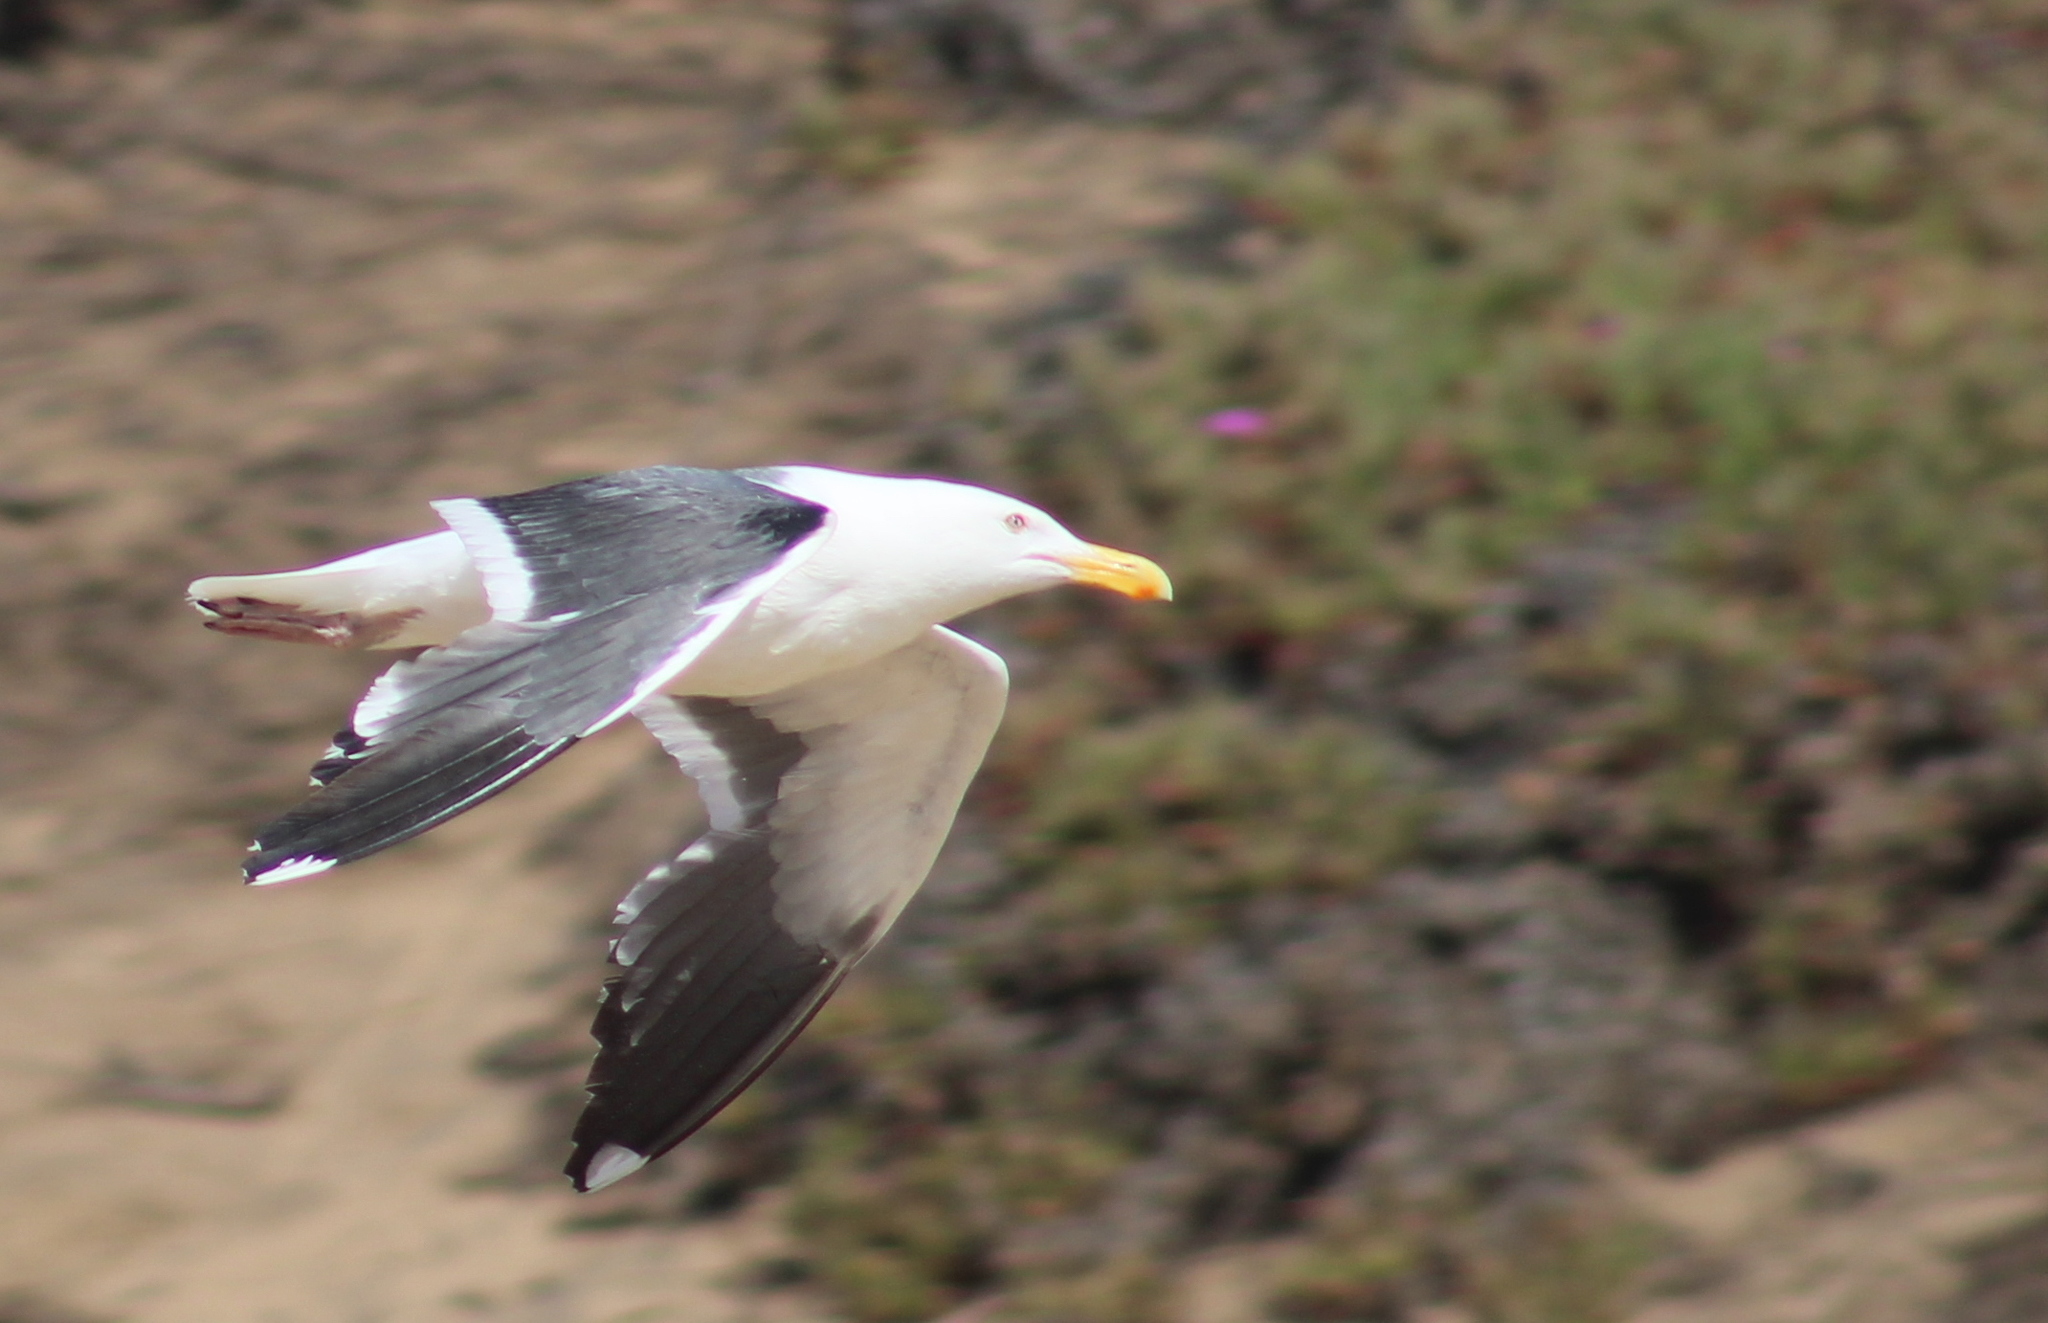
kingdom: Animalia
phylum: Chordata
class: Aves
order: Charadriiformes
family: Laridae
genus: Larus
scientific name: Larus occidentalis
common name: Western gull
